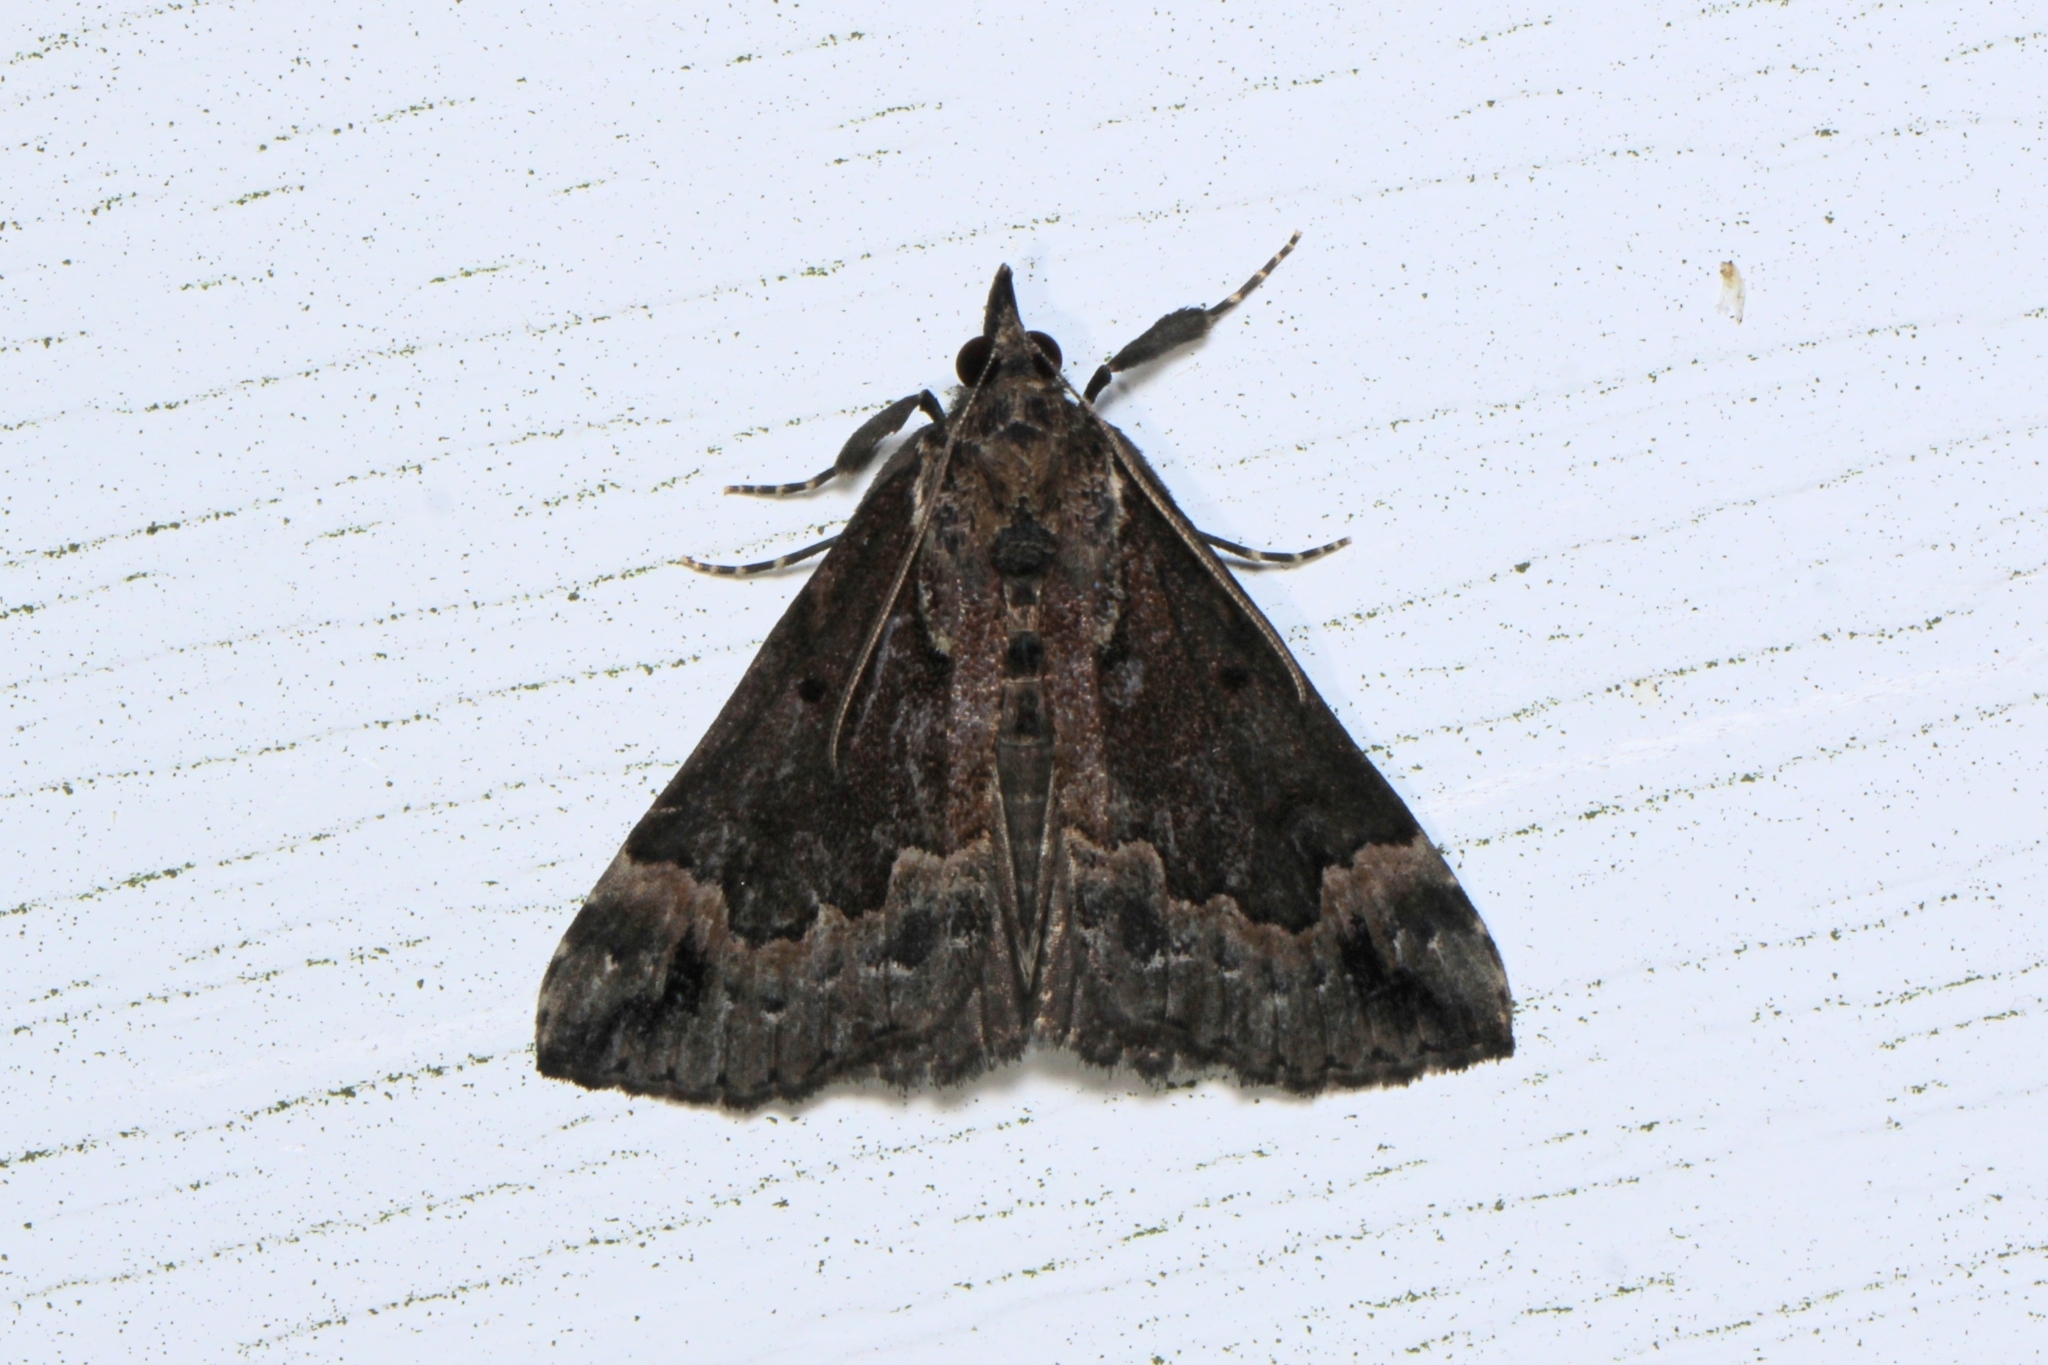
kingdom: Animalia
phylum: Arthropoda
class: Insecta
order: Lepidoptera
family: Erebidae
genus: Hypena
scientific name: Hypena baltimoralis
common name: Baltimore snout
